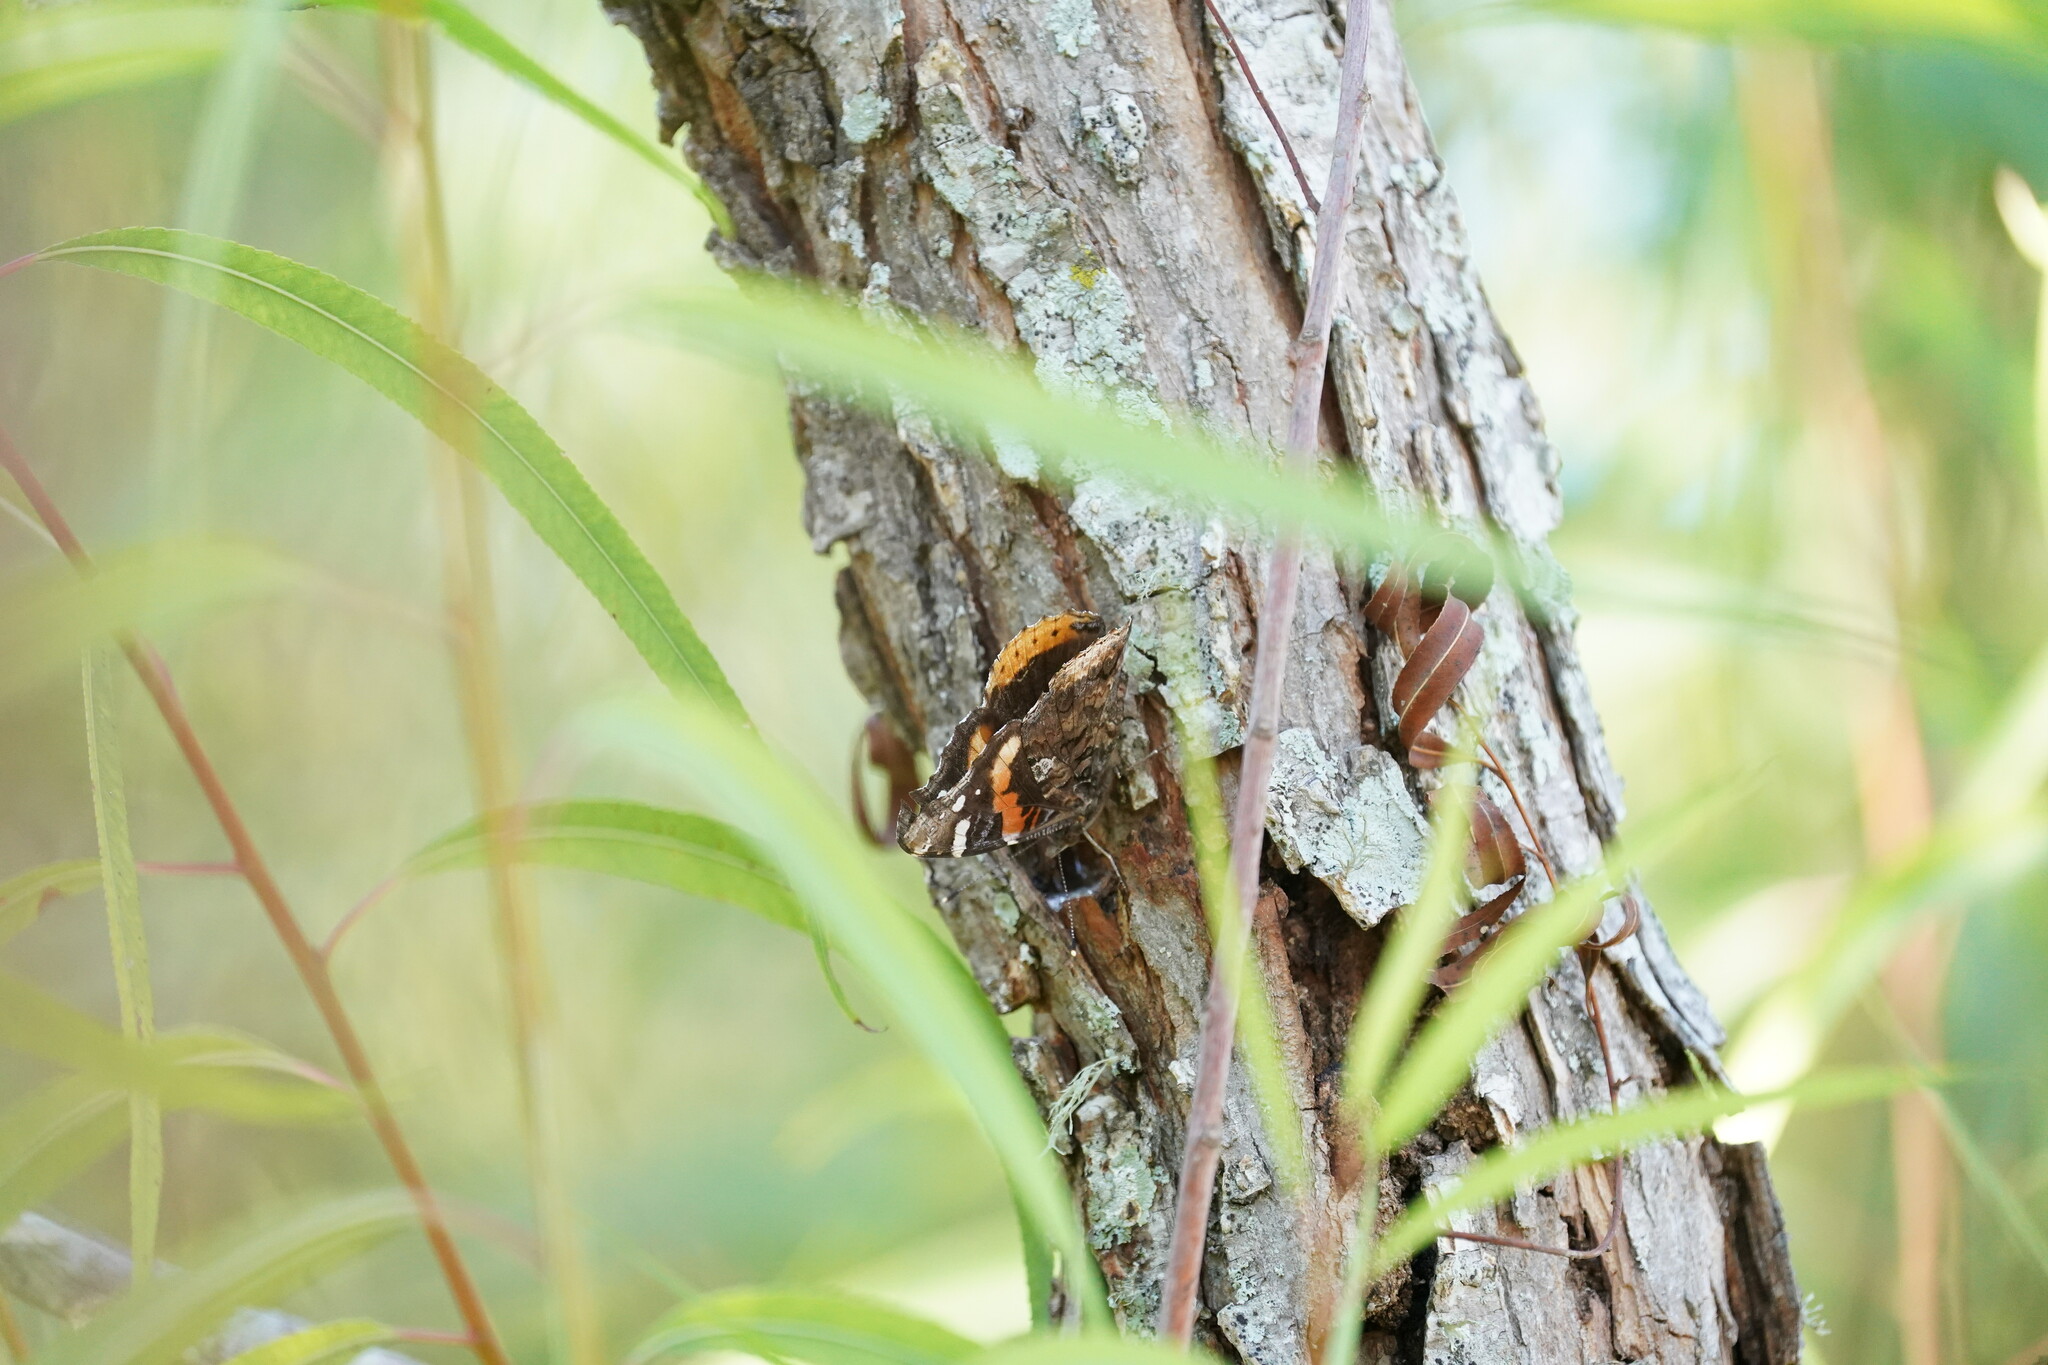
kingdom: Animalia
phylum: Arthropoda
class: Insecta
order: Lepidoptera
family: Nymphalidae
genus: Vanessa
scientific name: Vanessa atalanta
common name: Red admiral
